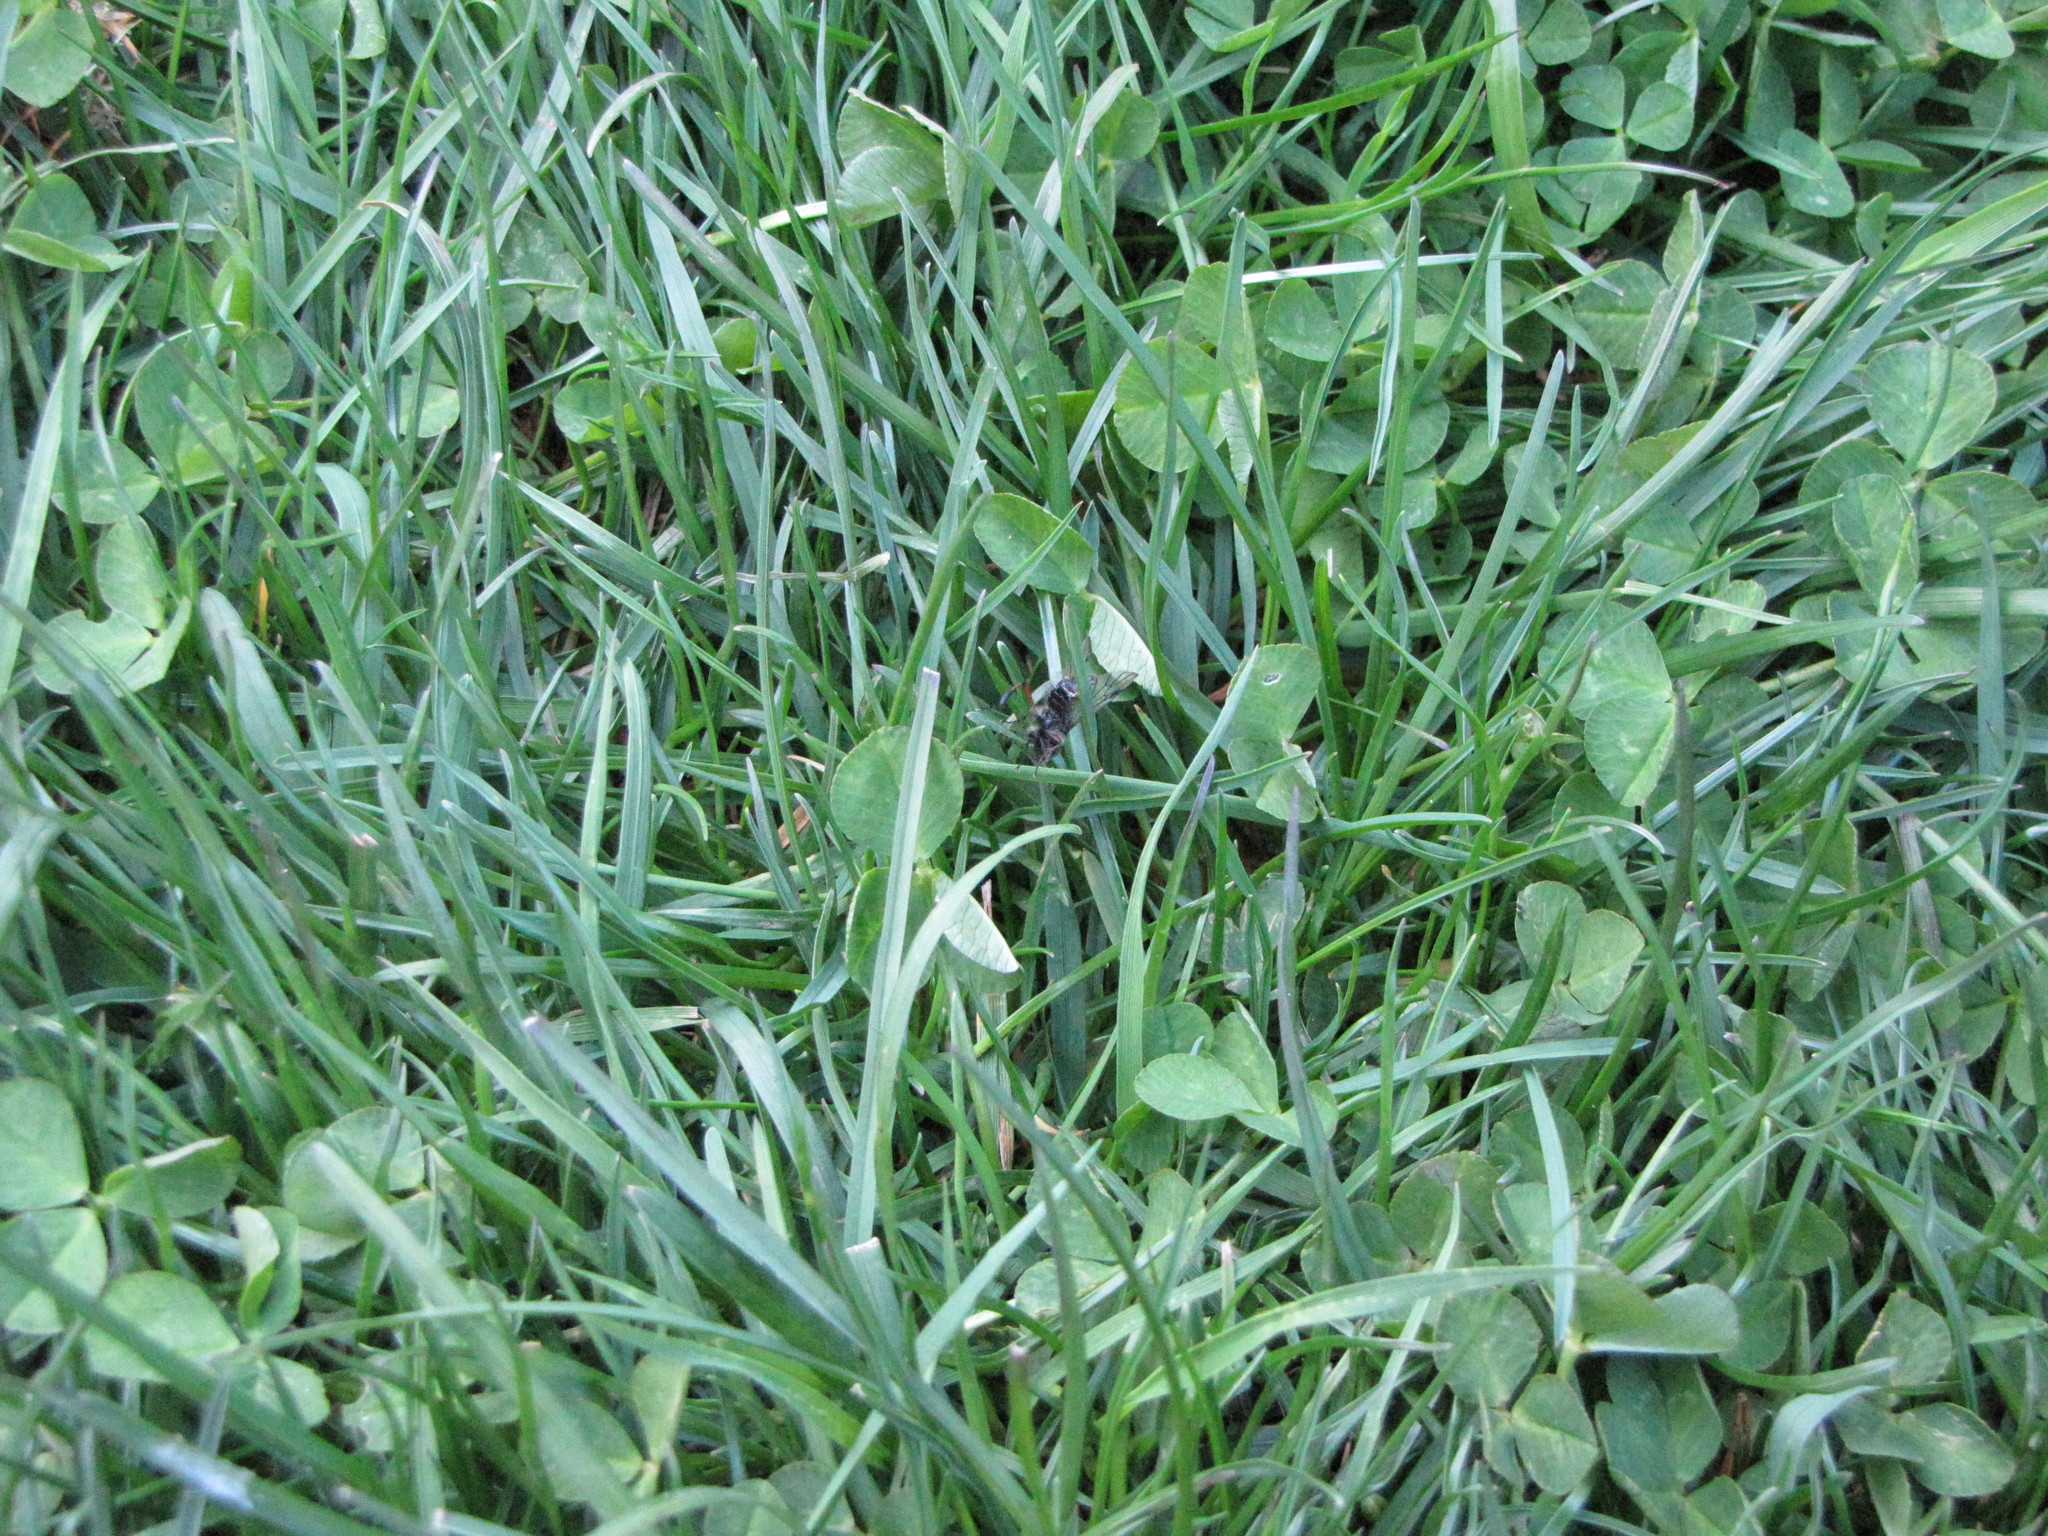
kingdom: Animalia
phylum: Arthropoda
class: Insecta
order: Diptera
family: Bibionidae
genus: Bibio
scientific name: Bibio
